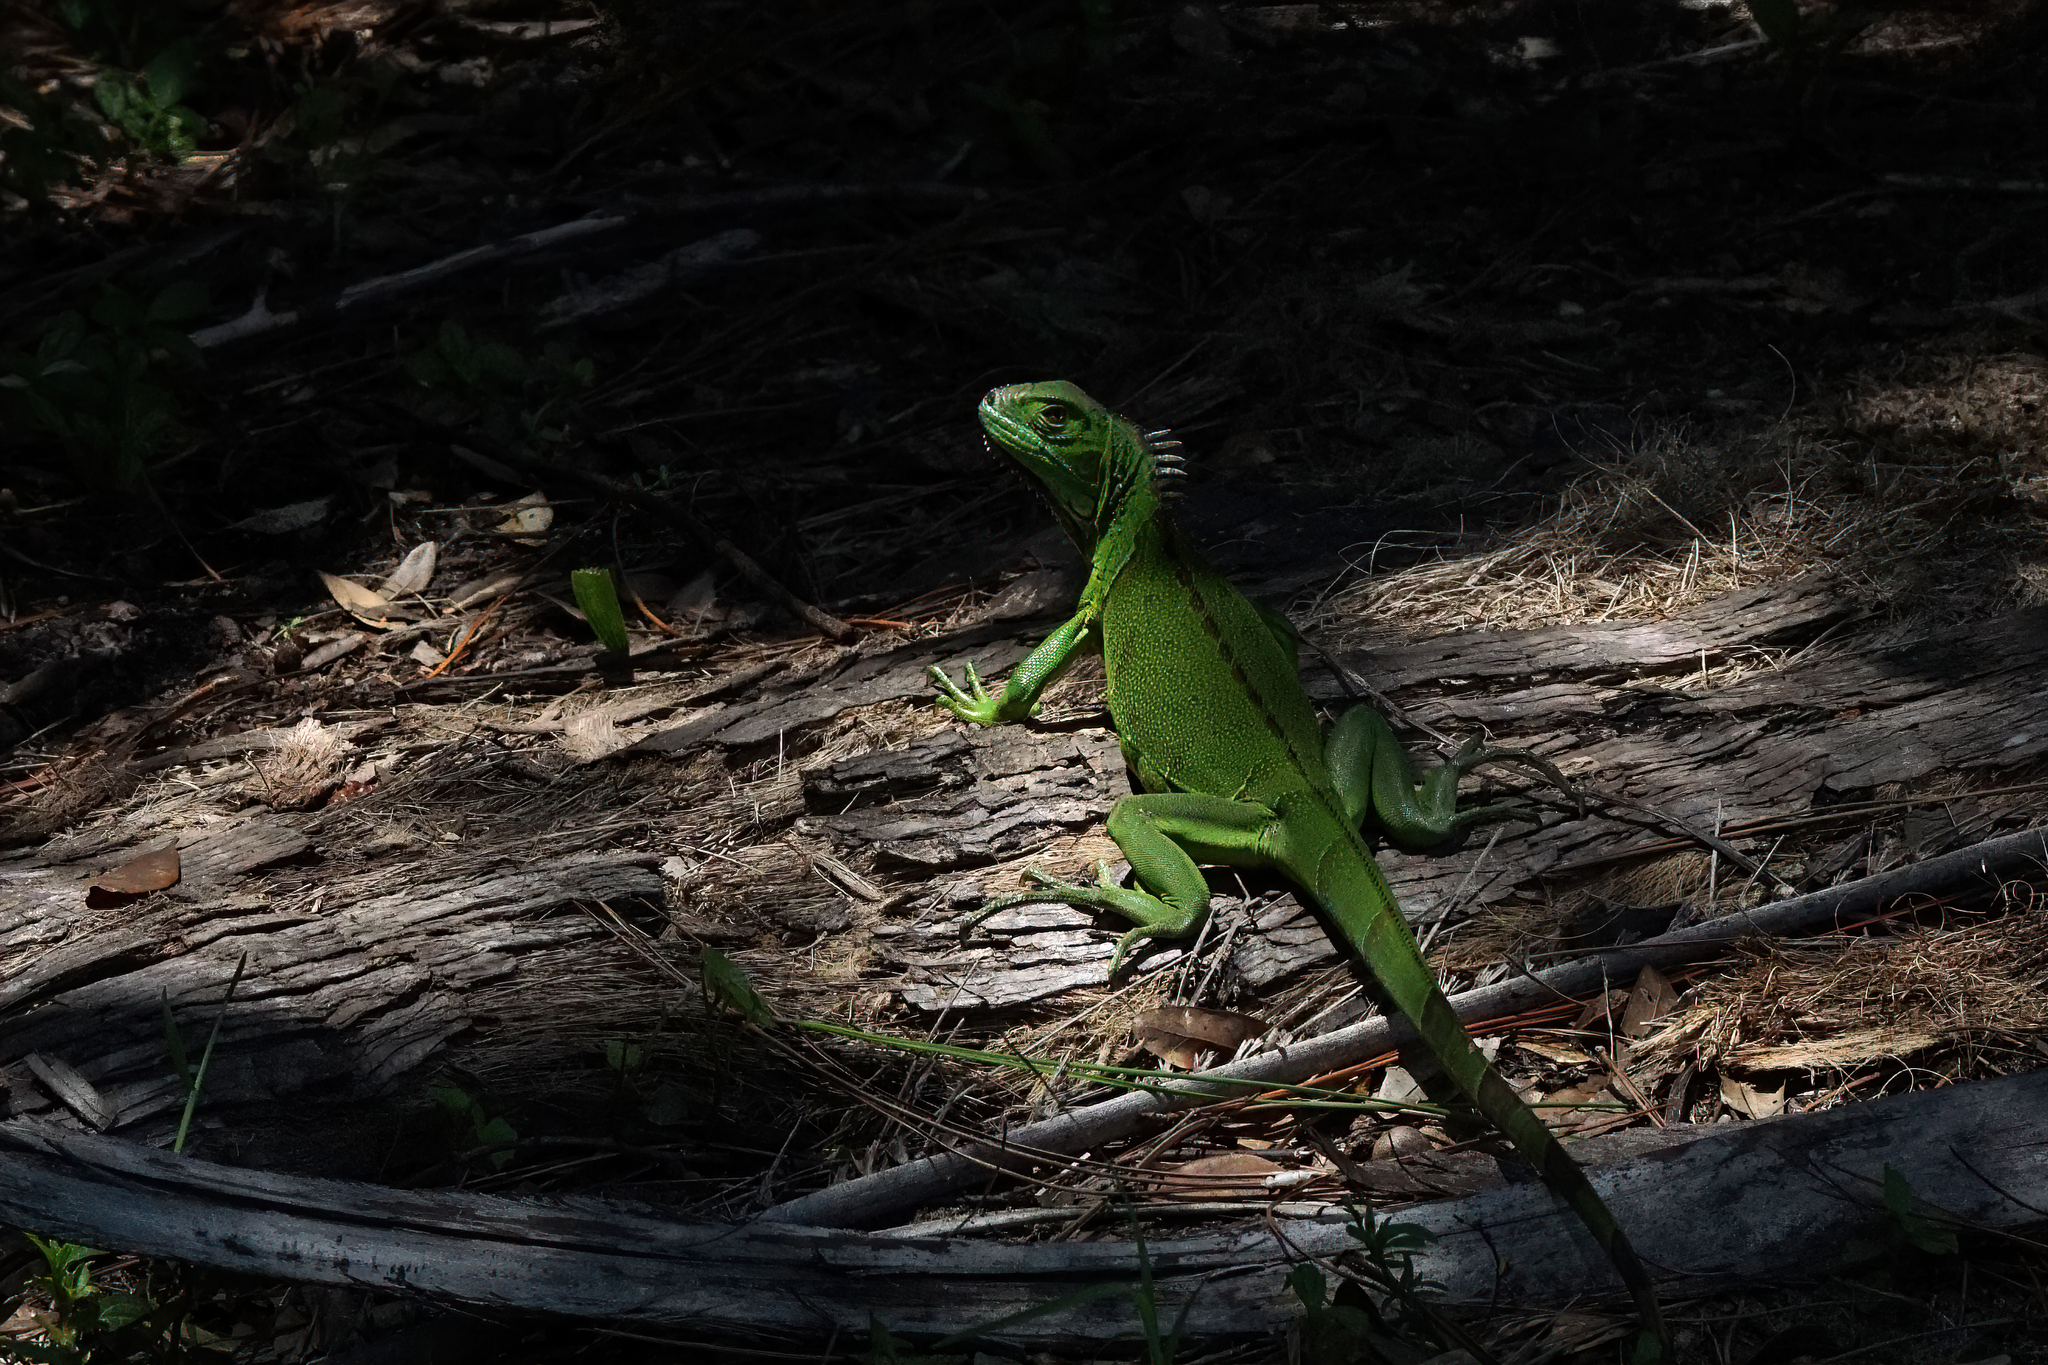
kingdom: Animalia
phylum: Chordata
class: Squamata
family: Iguanidae
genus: Iguana
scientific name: Iguana iguana
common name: Green iguana
